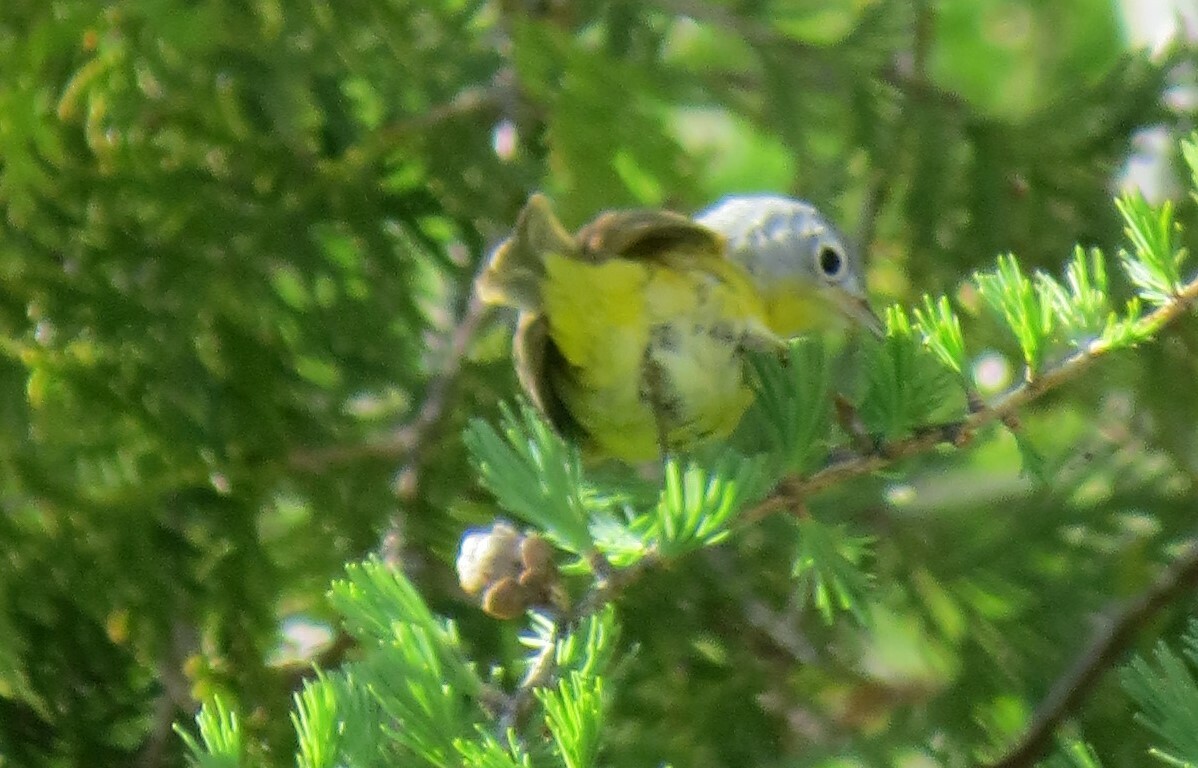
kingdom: Animalia
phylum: Chordata
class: Aves
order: Passeriformes
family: Parulidae
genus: Leiothlypis
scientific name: Leiothlypis ruficapilla
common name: Nashville warbler
